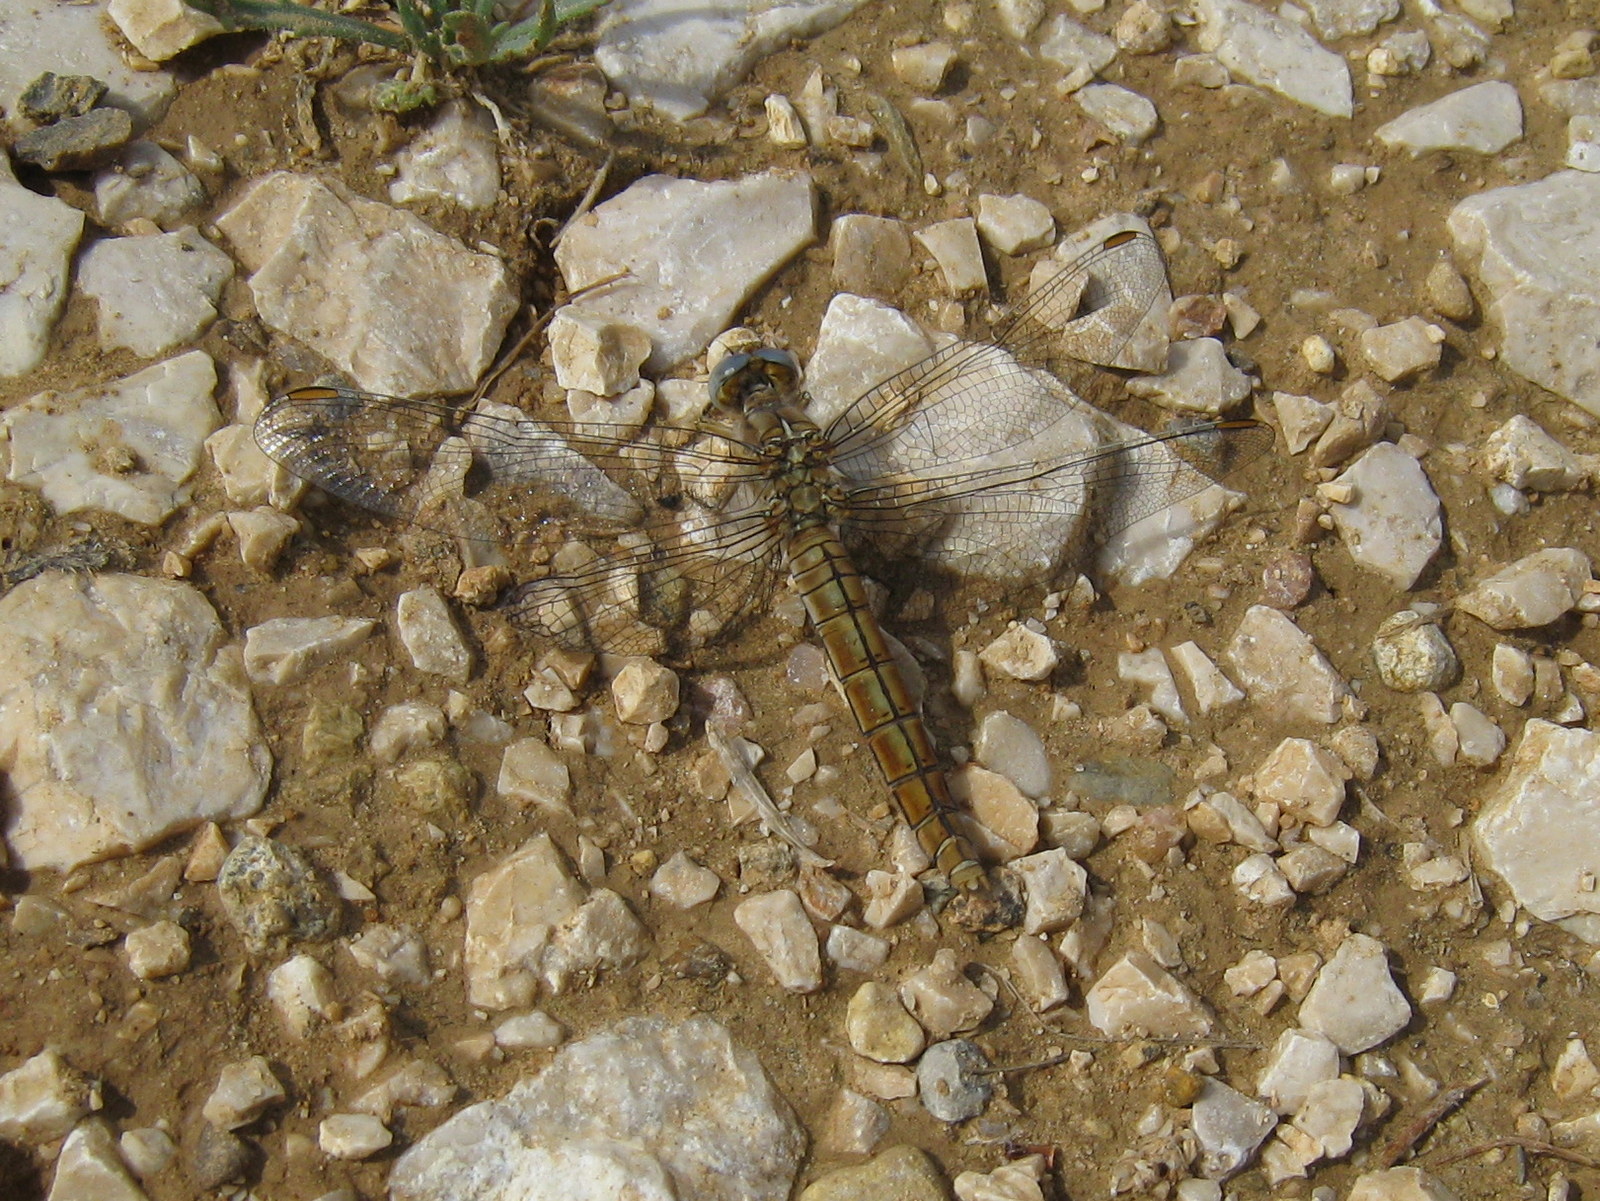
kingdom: Animalia
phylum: Arthropoda
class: Insecta
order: Odonata
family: Libellulidae
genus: Orthetrum
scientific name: Orthetrum brunneum
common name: Southern skimmer
